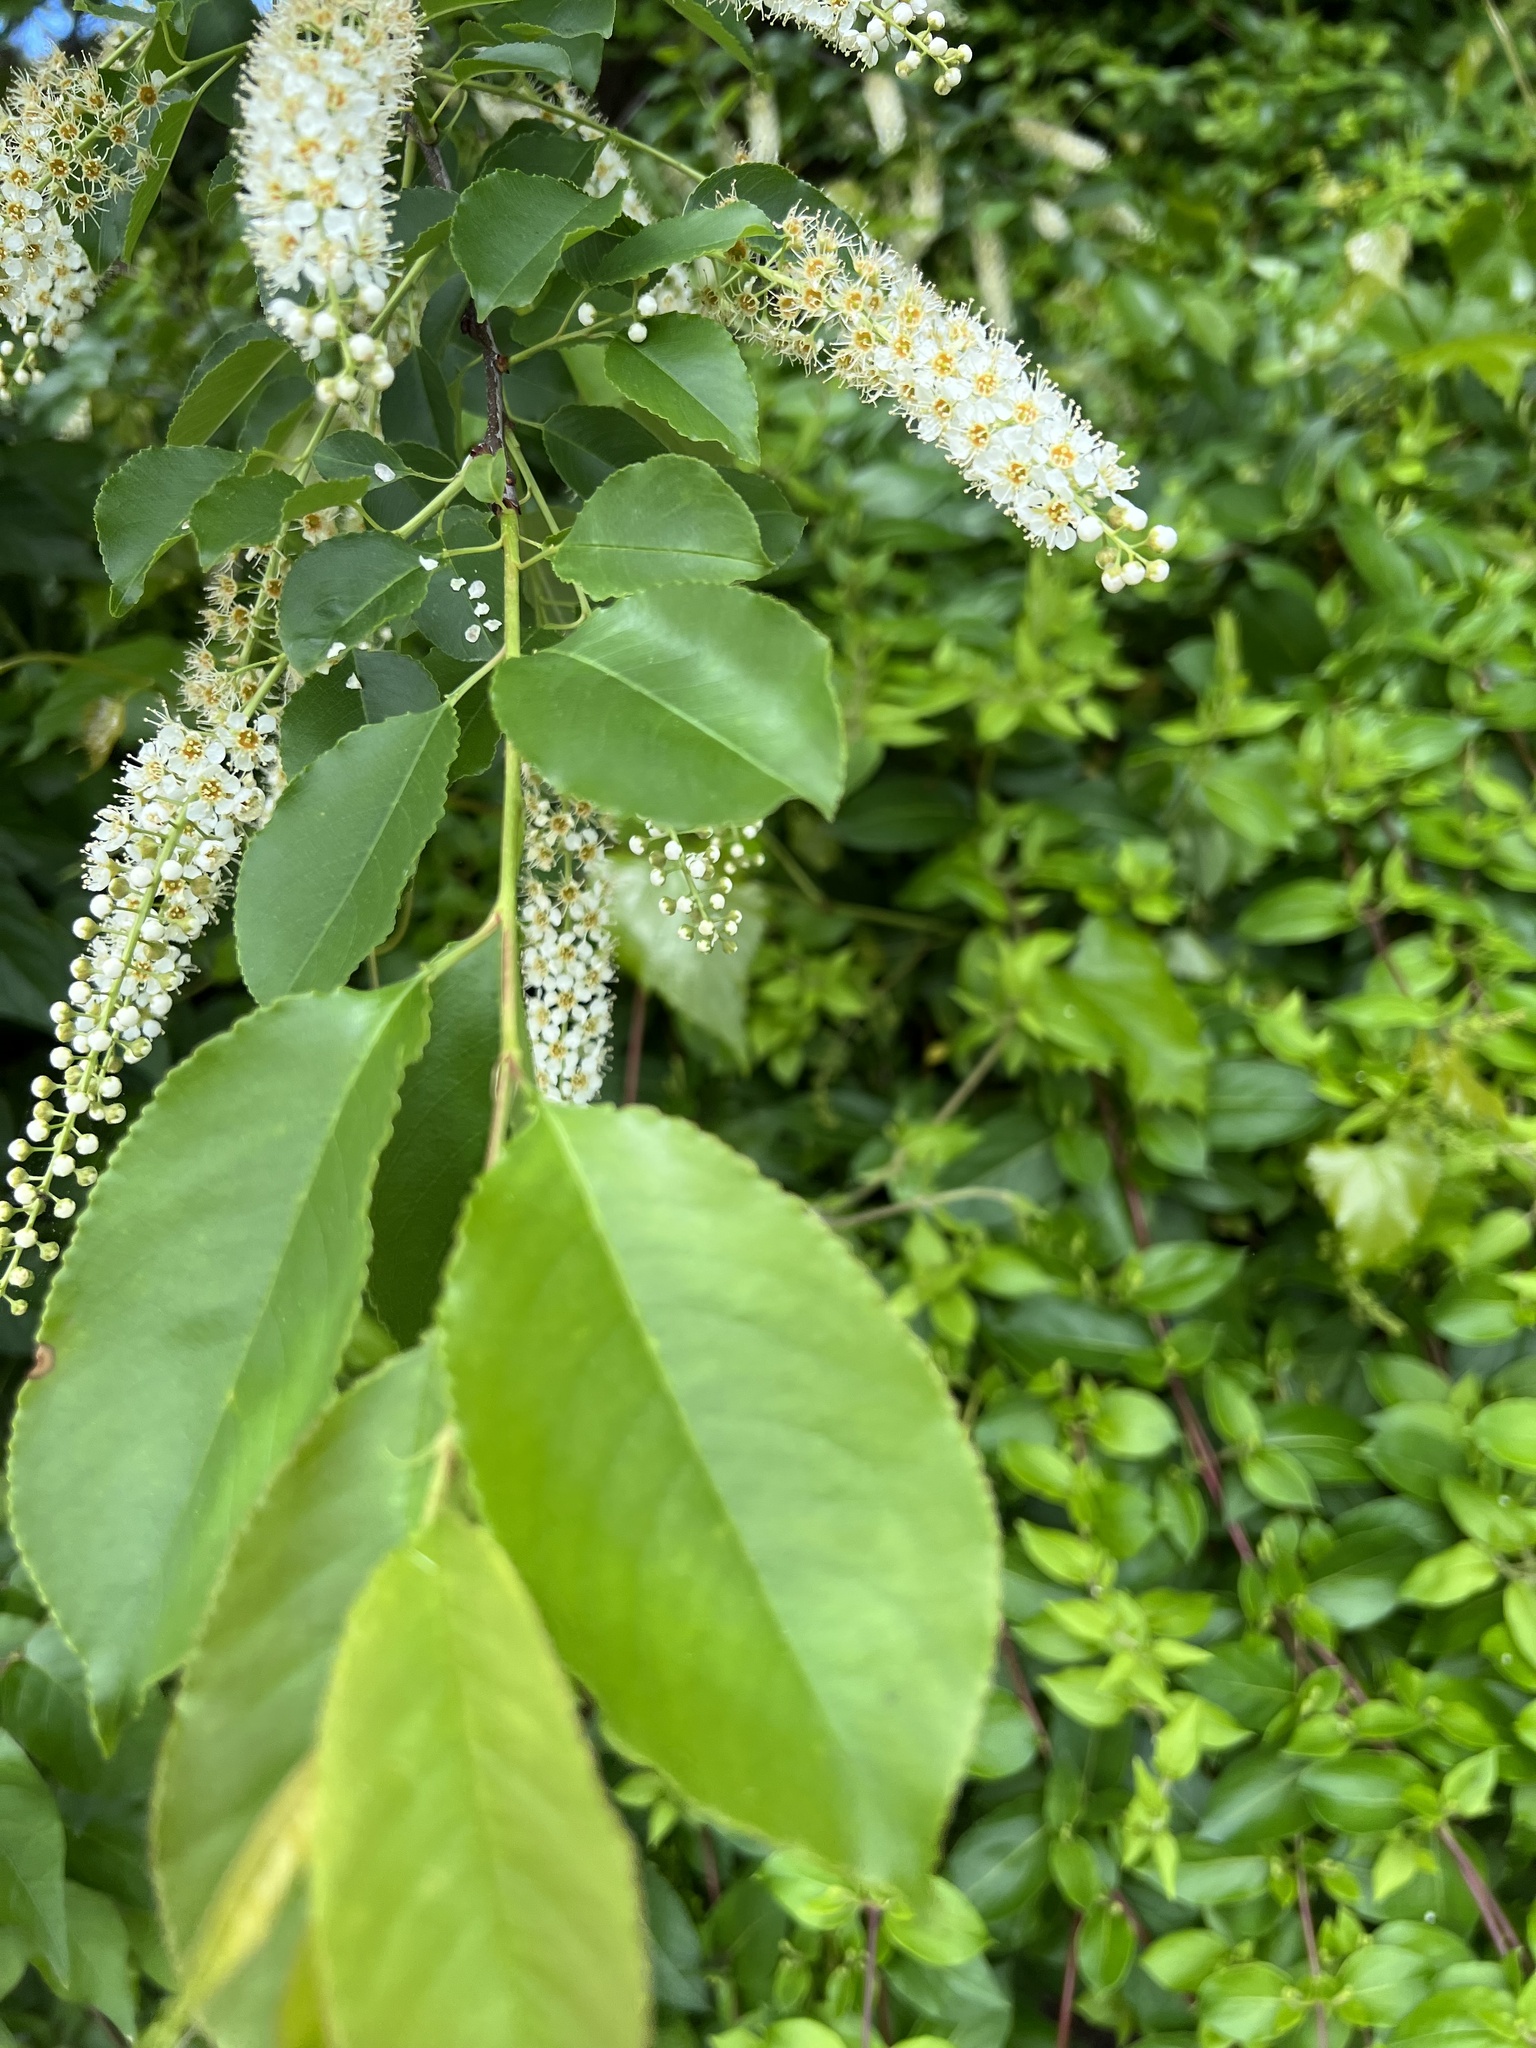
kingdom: Plantae
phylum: Tracheophyta
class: Magnoliopsida
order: Rosales
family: Rosaceae
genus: Prunus
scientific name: Prunus serotina
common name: Black cherry
